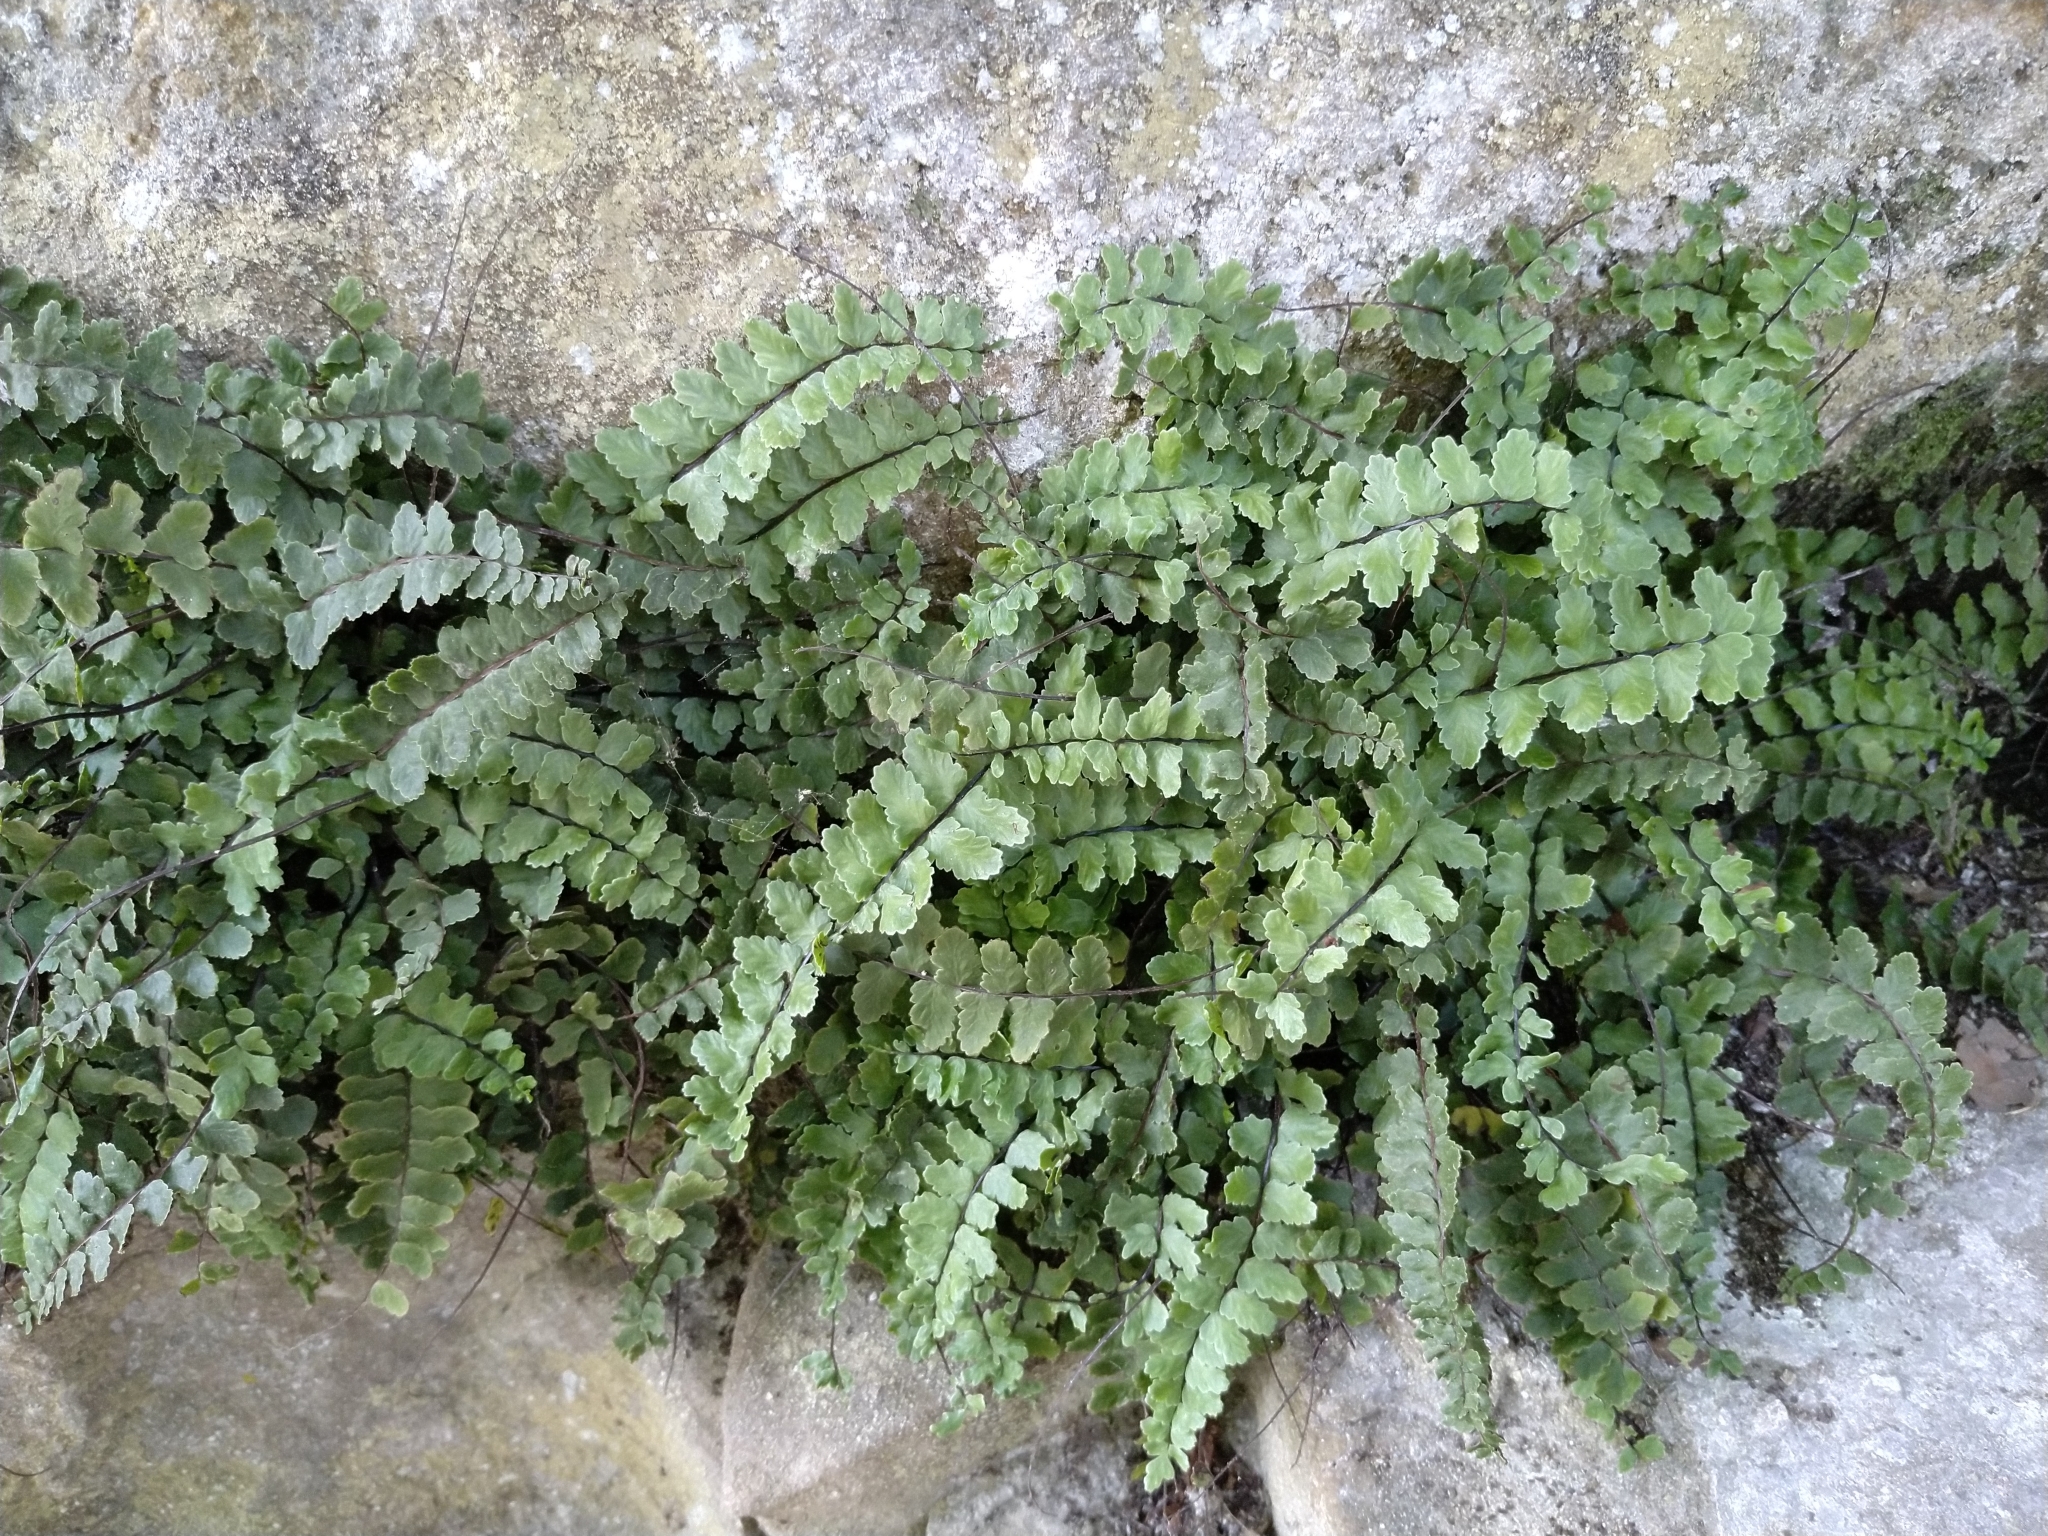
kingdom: Plantae
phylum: Tracheophyta
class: Polypodiopsida
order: Polypodiales
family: Aspleniaceae
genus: Asplenium
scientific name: Asplenium trichomanes
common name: Maidenhair spleenwort
